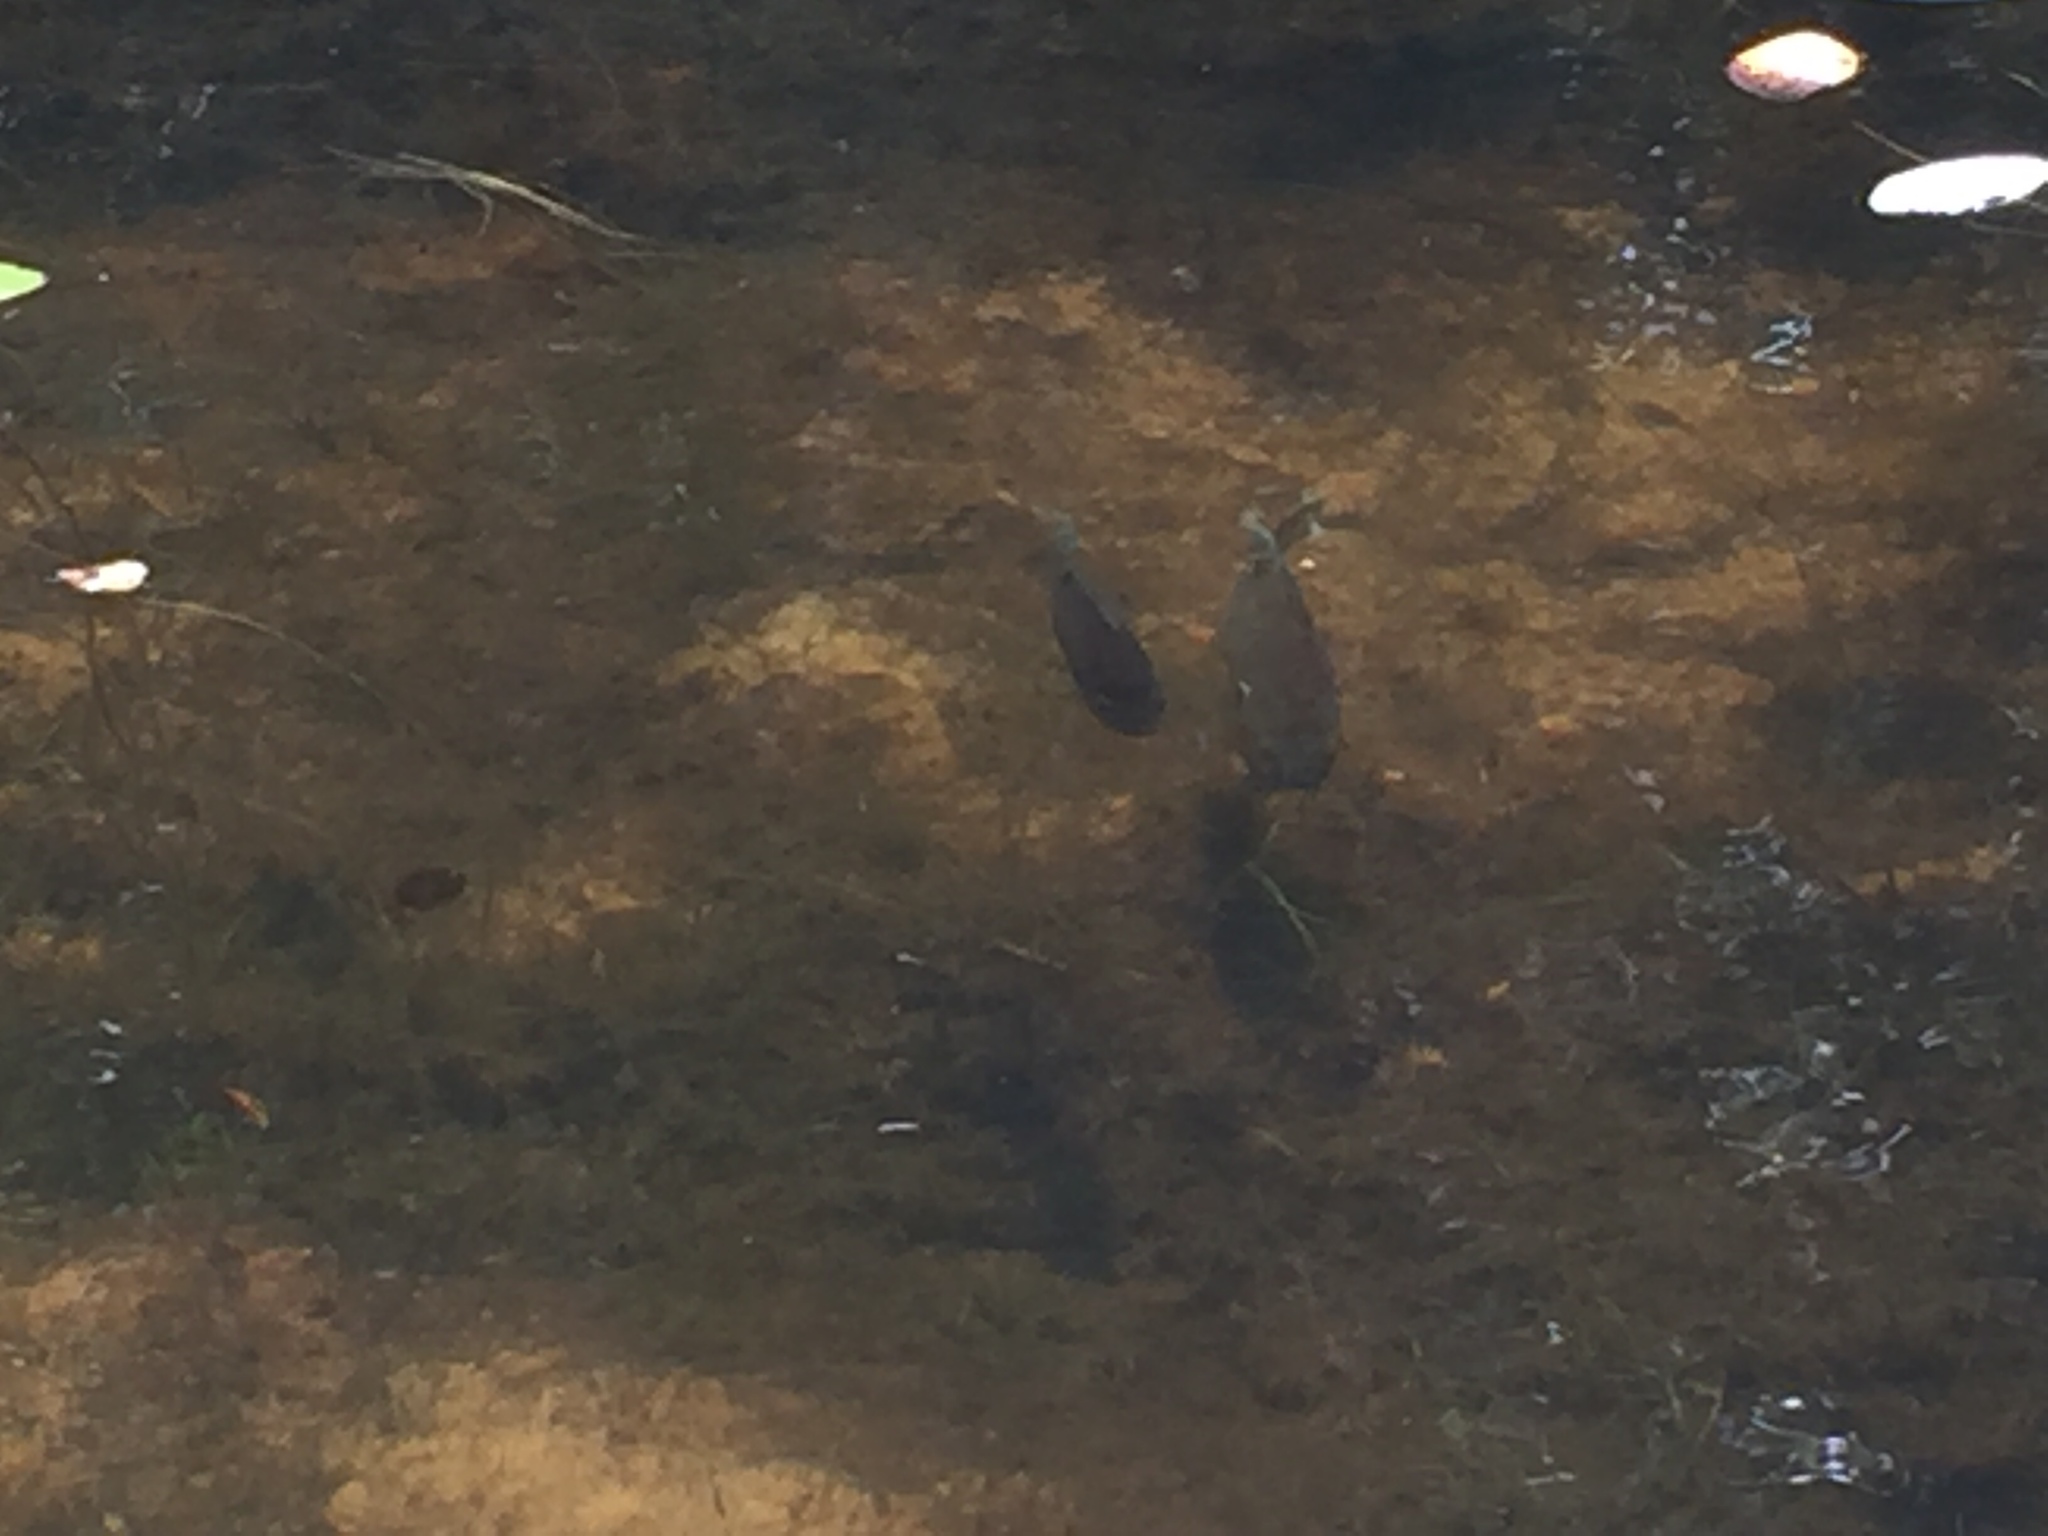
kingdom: Animalia
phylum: Chordata
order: Perciformes
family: Centrarchidae
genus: Lepomis
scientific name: Lepomis
